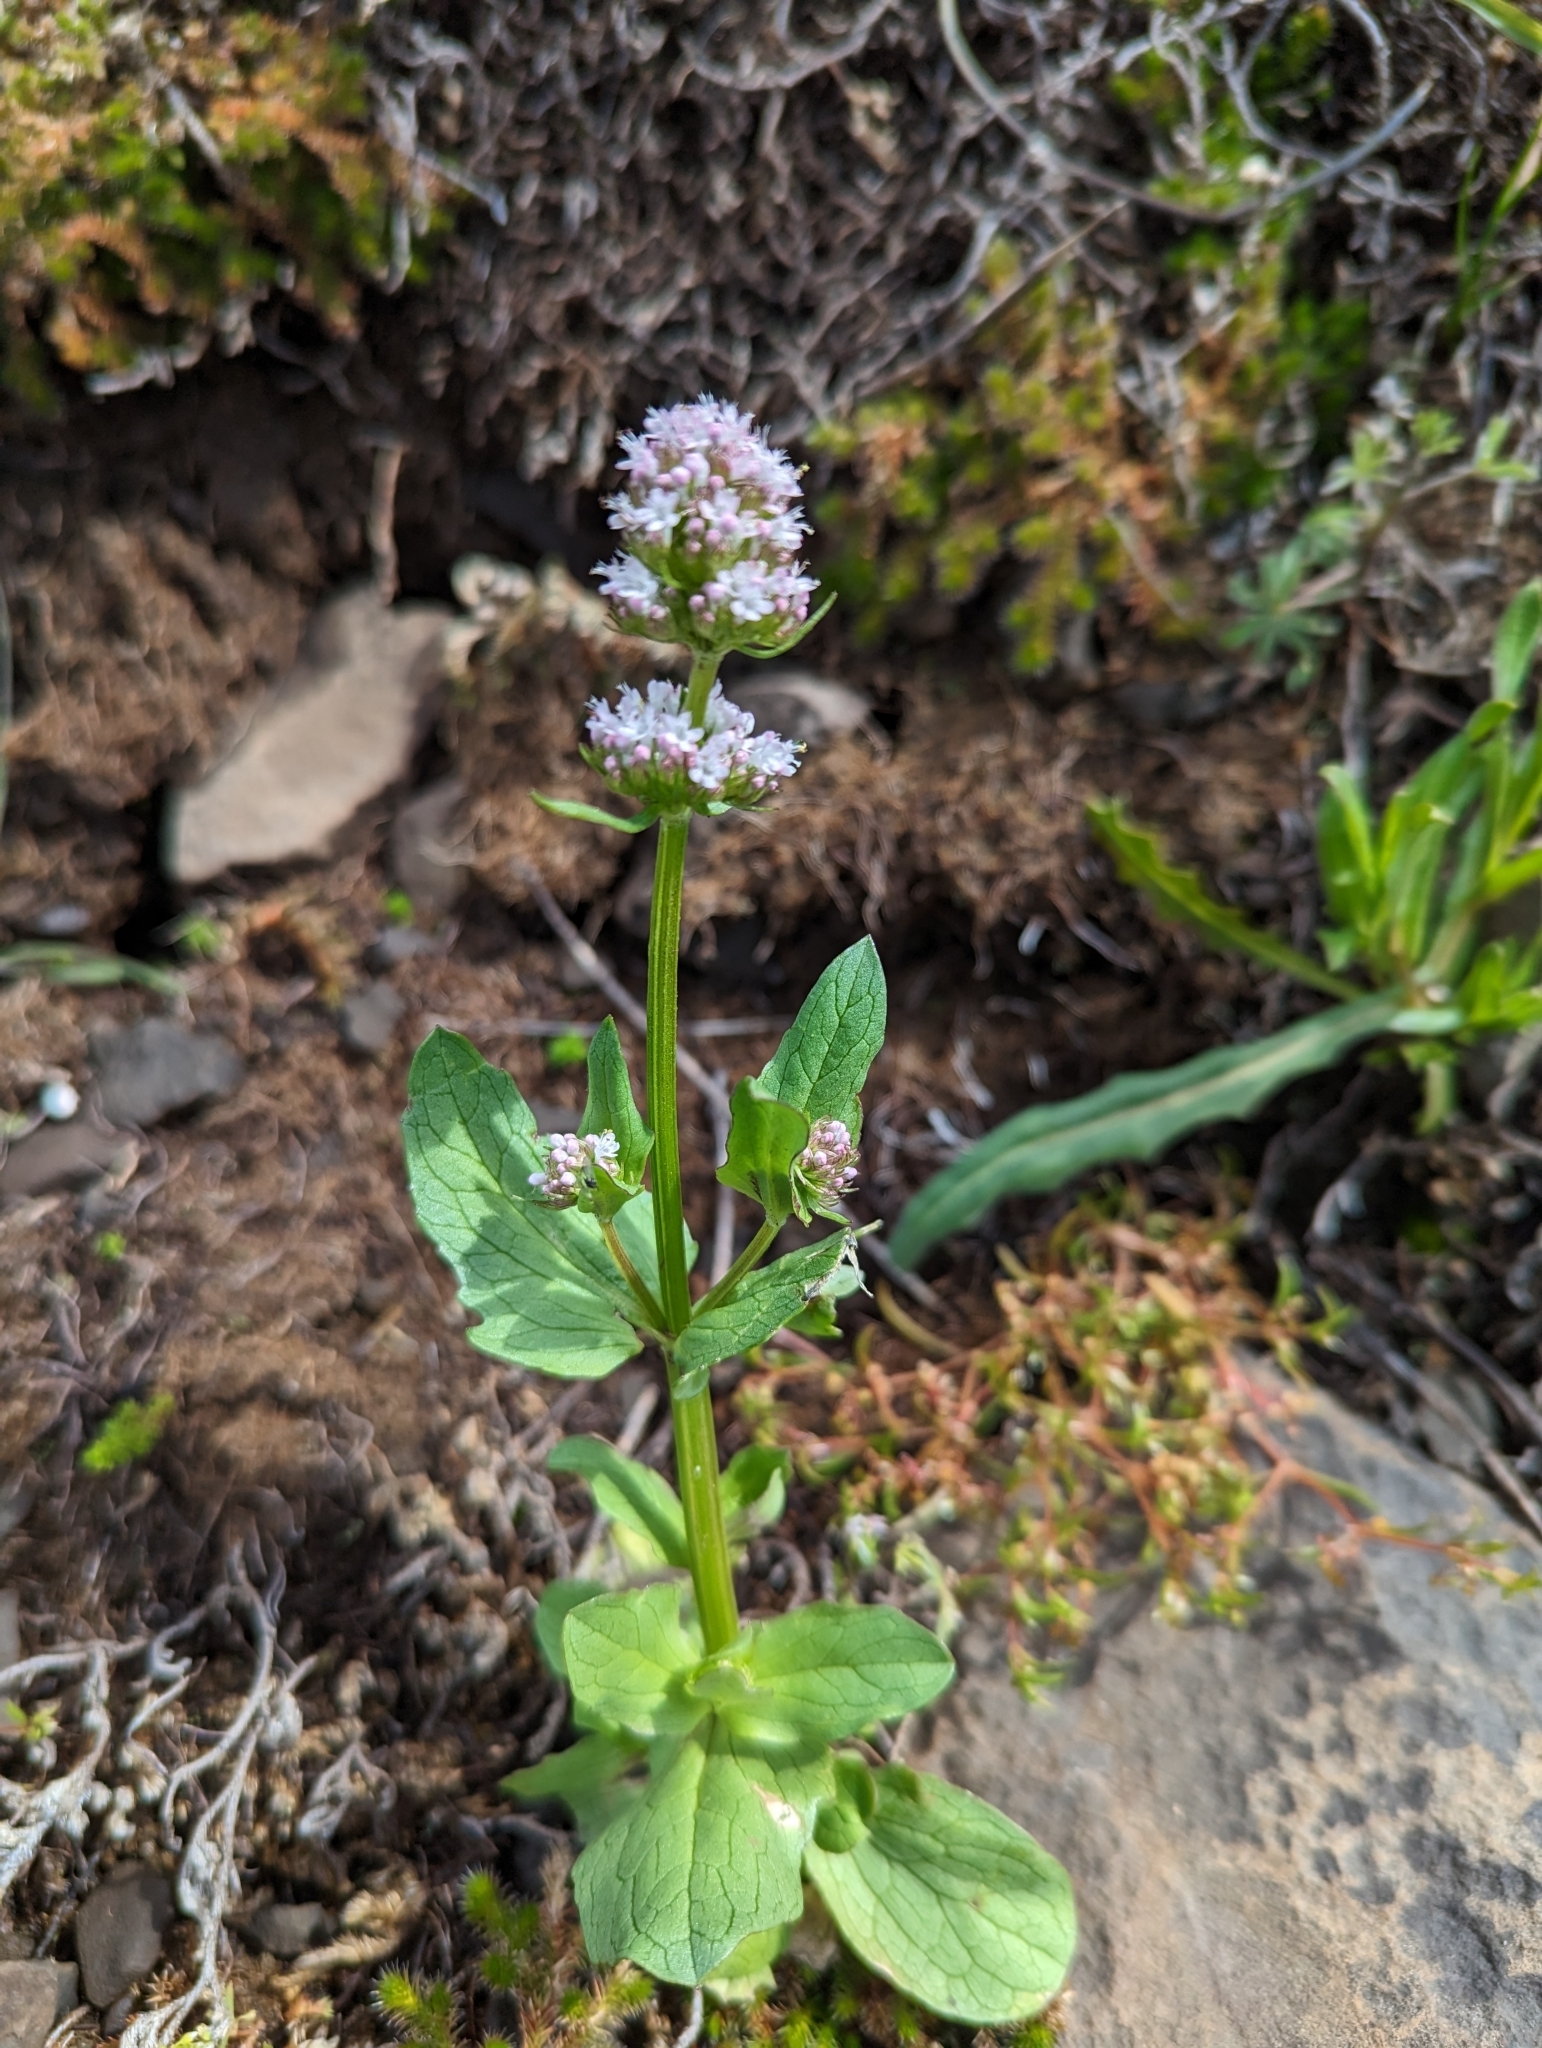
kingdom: Plantae
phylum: Tracheophyta
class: Magnoliopsida
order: Dipsacales
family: Caprifoliaceae
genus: Plectritis
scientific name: Plectritis macroptera
